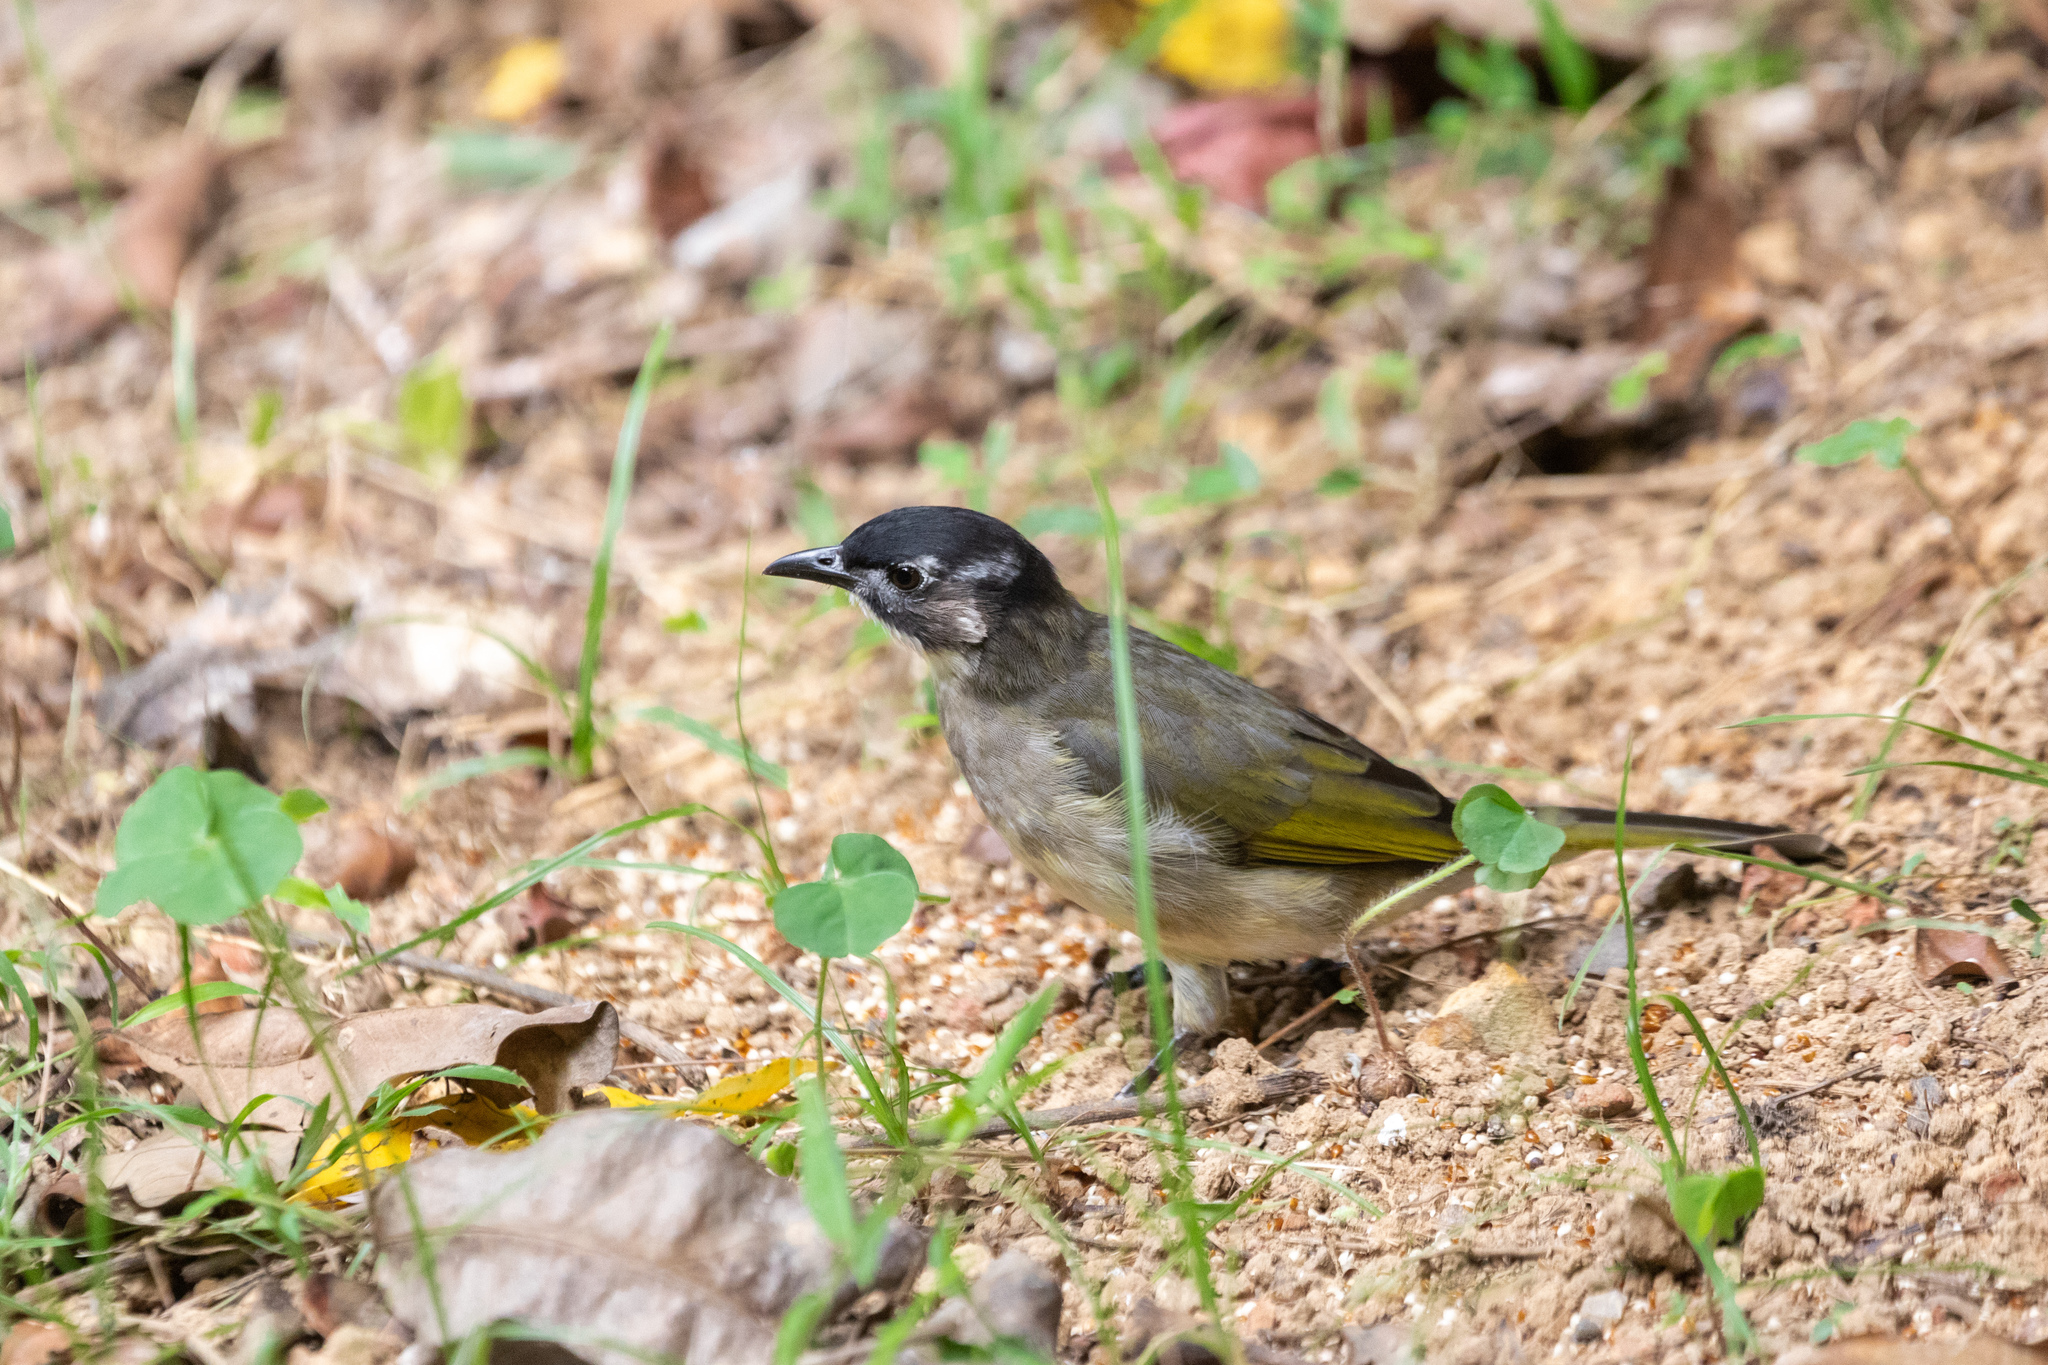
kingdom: Animalia
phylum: Chordata
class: Aves
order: Passeriformes
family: Pycnonotidae
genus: Pycnonotus
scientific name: Pycnonotus sinensis
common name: Light-vented bulbul
